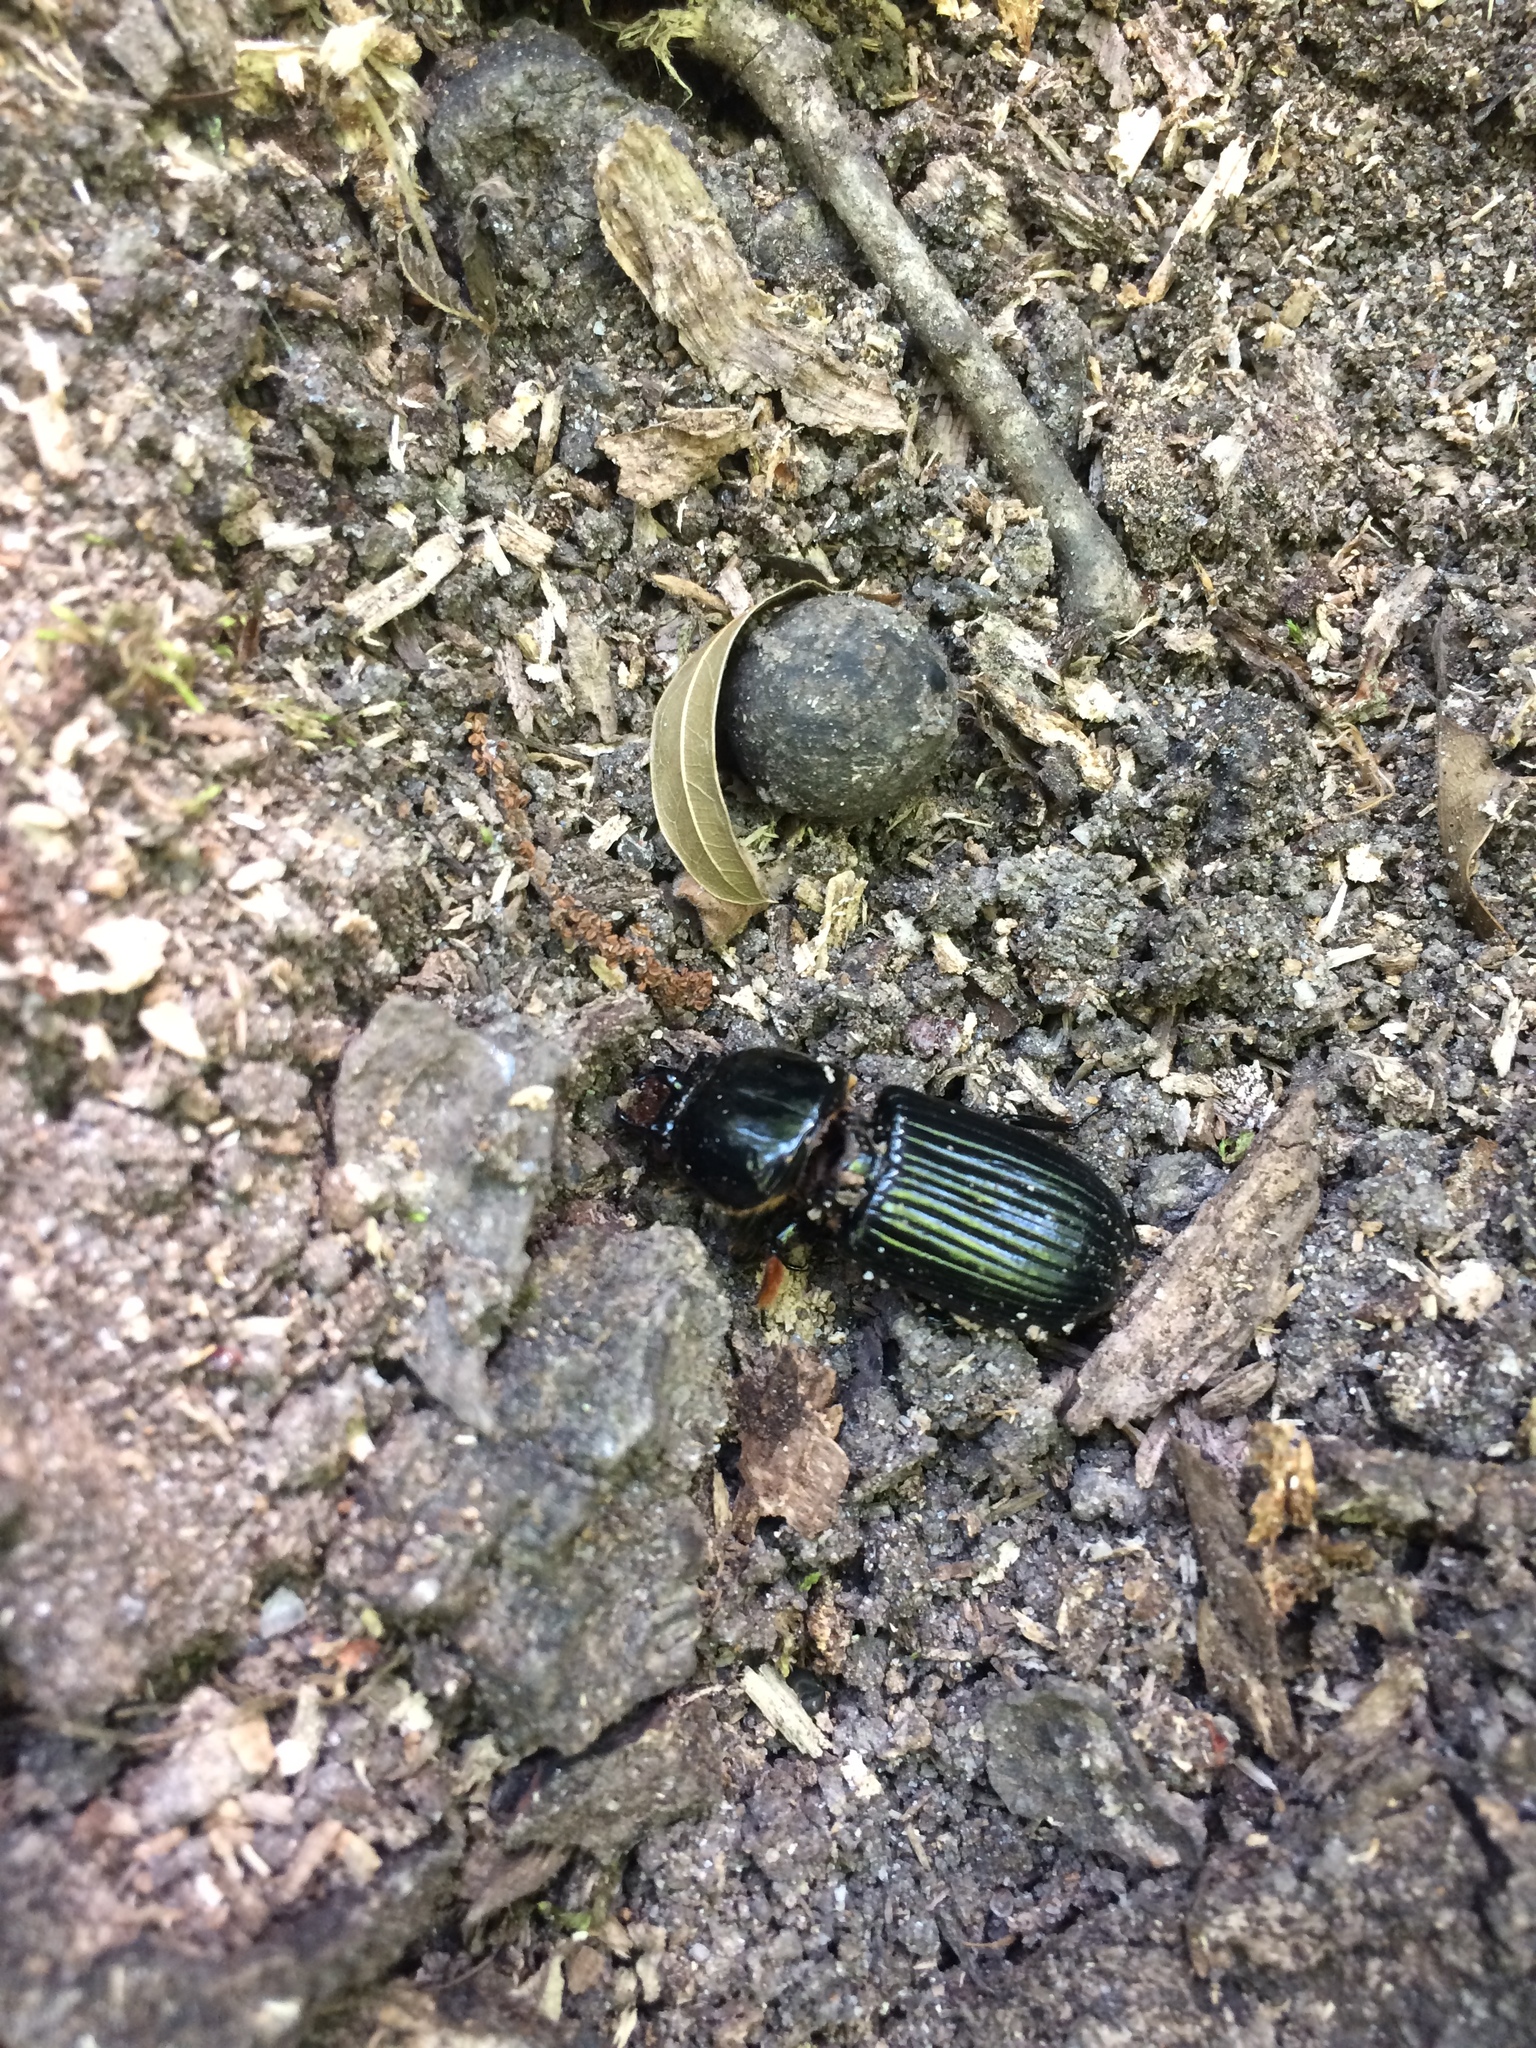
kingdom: Animalia
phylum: Arthropoda
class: Insecta
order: Coleoptera
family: Passalidae
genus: Odontotaenius
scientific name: Odontotaenius disjunctus
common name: Patent leather beetle
